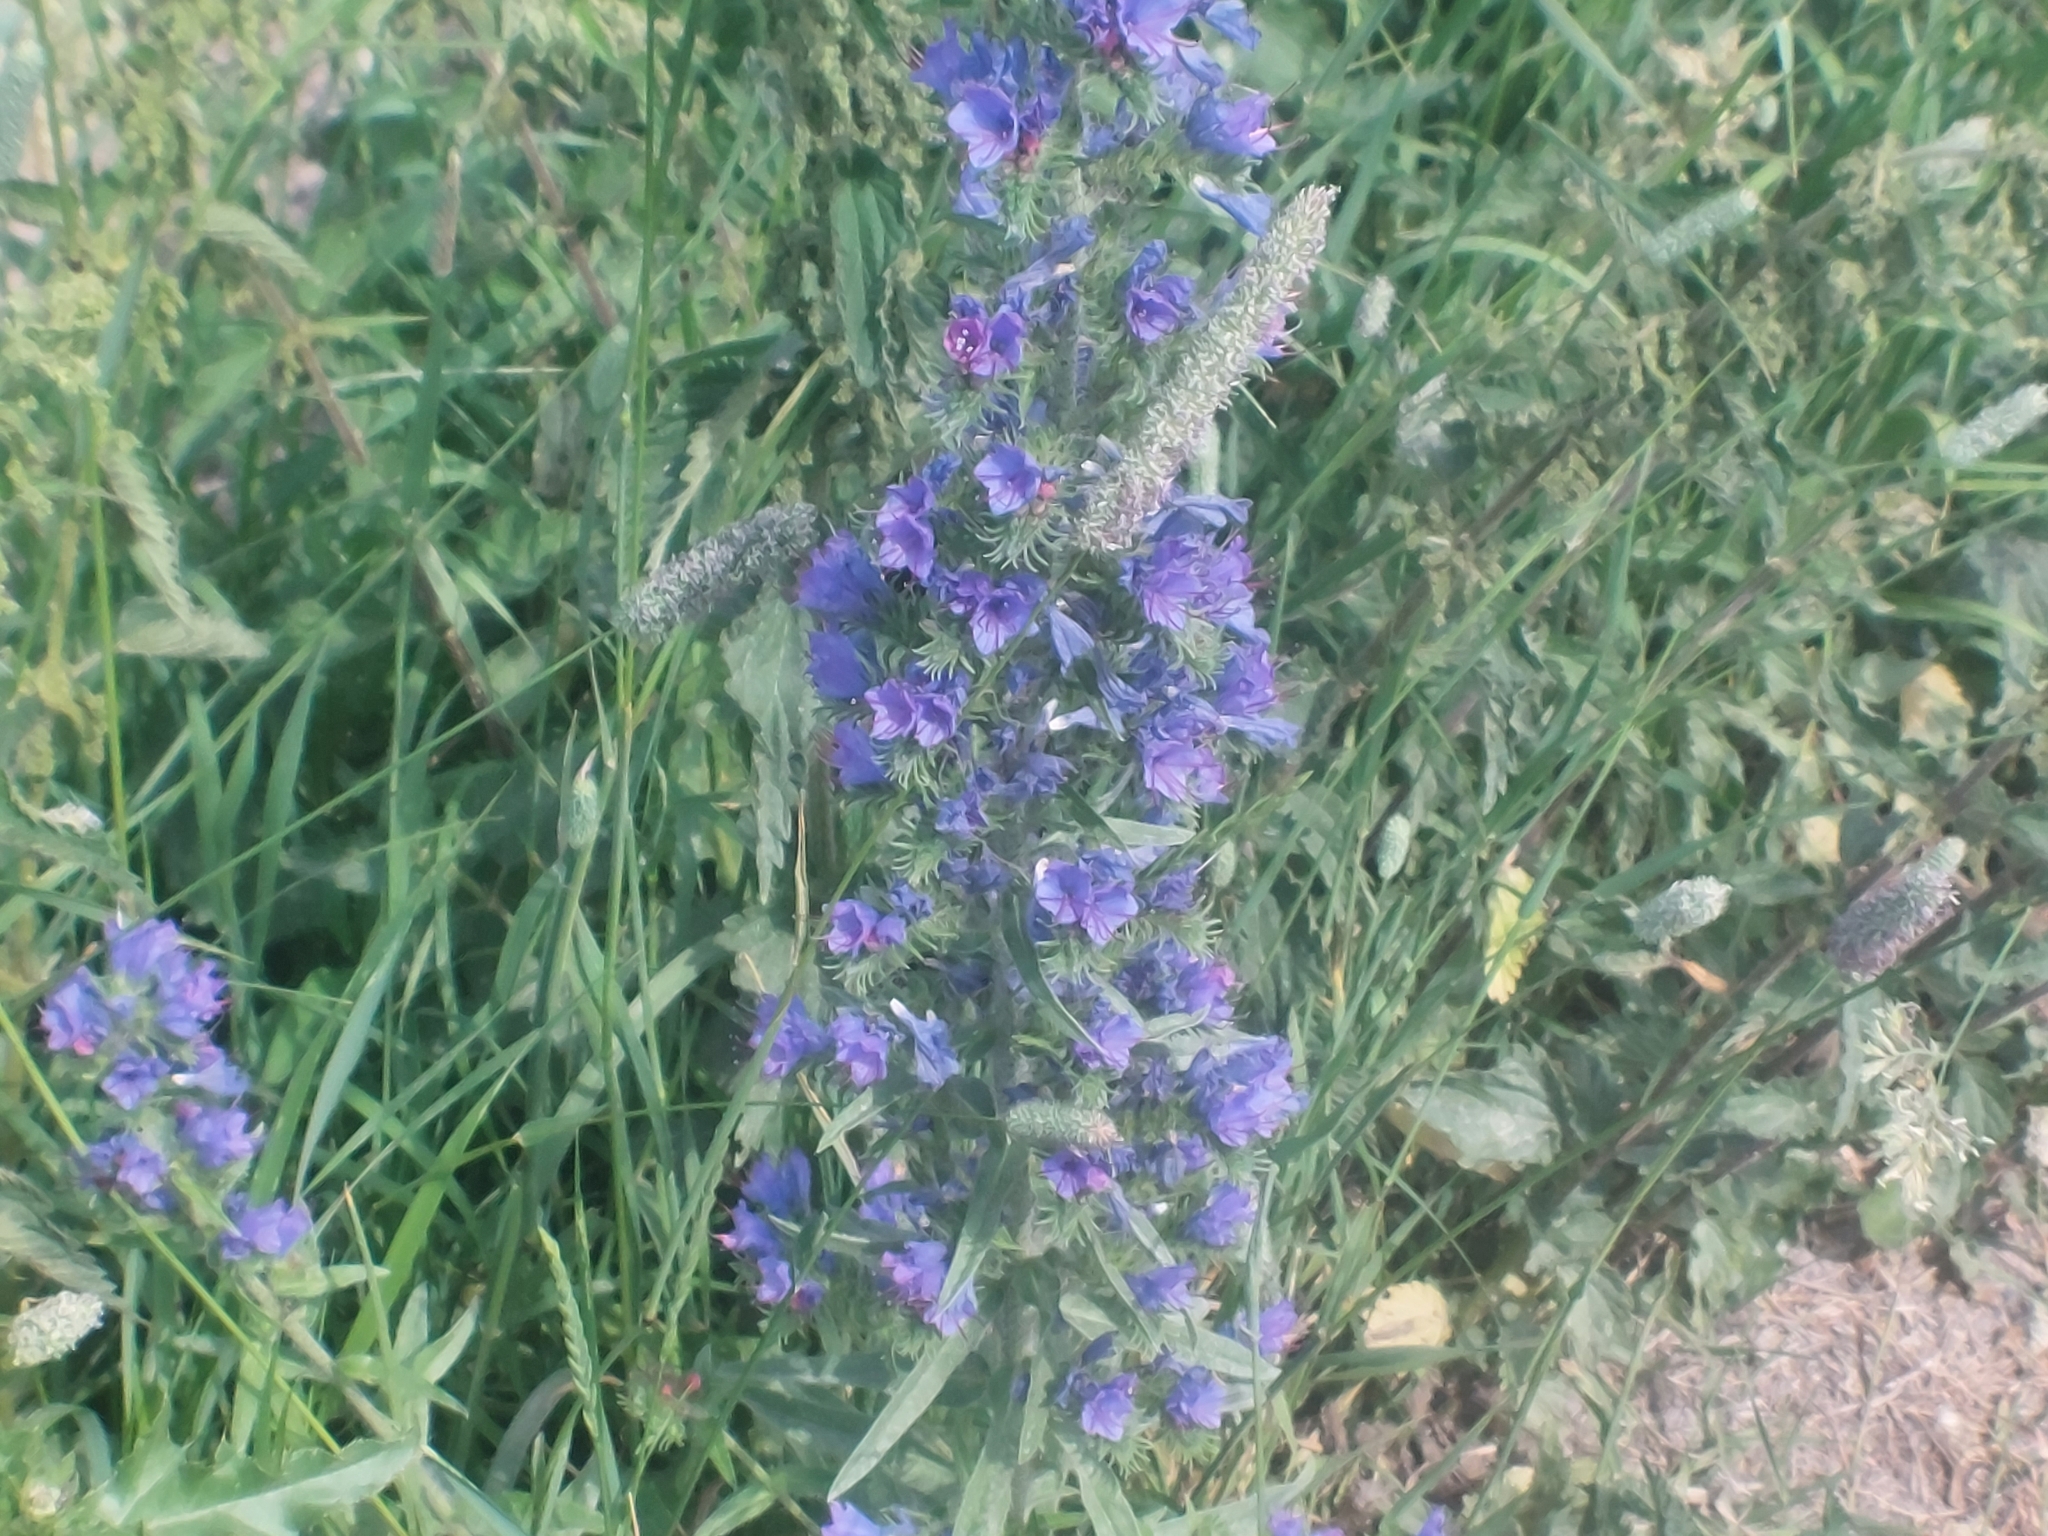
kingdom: Plantae
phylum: Tracheophyta
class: Magnoliopsida
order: Boraginales
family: Boraginaceae
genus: Echium
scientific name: Echium vulgare
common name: Common viper's bugloss
